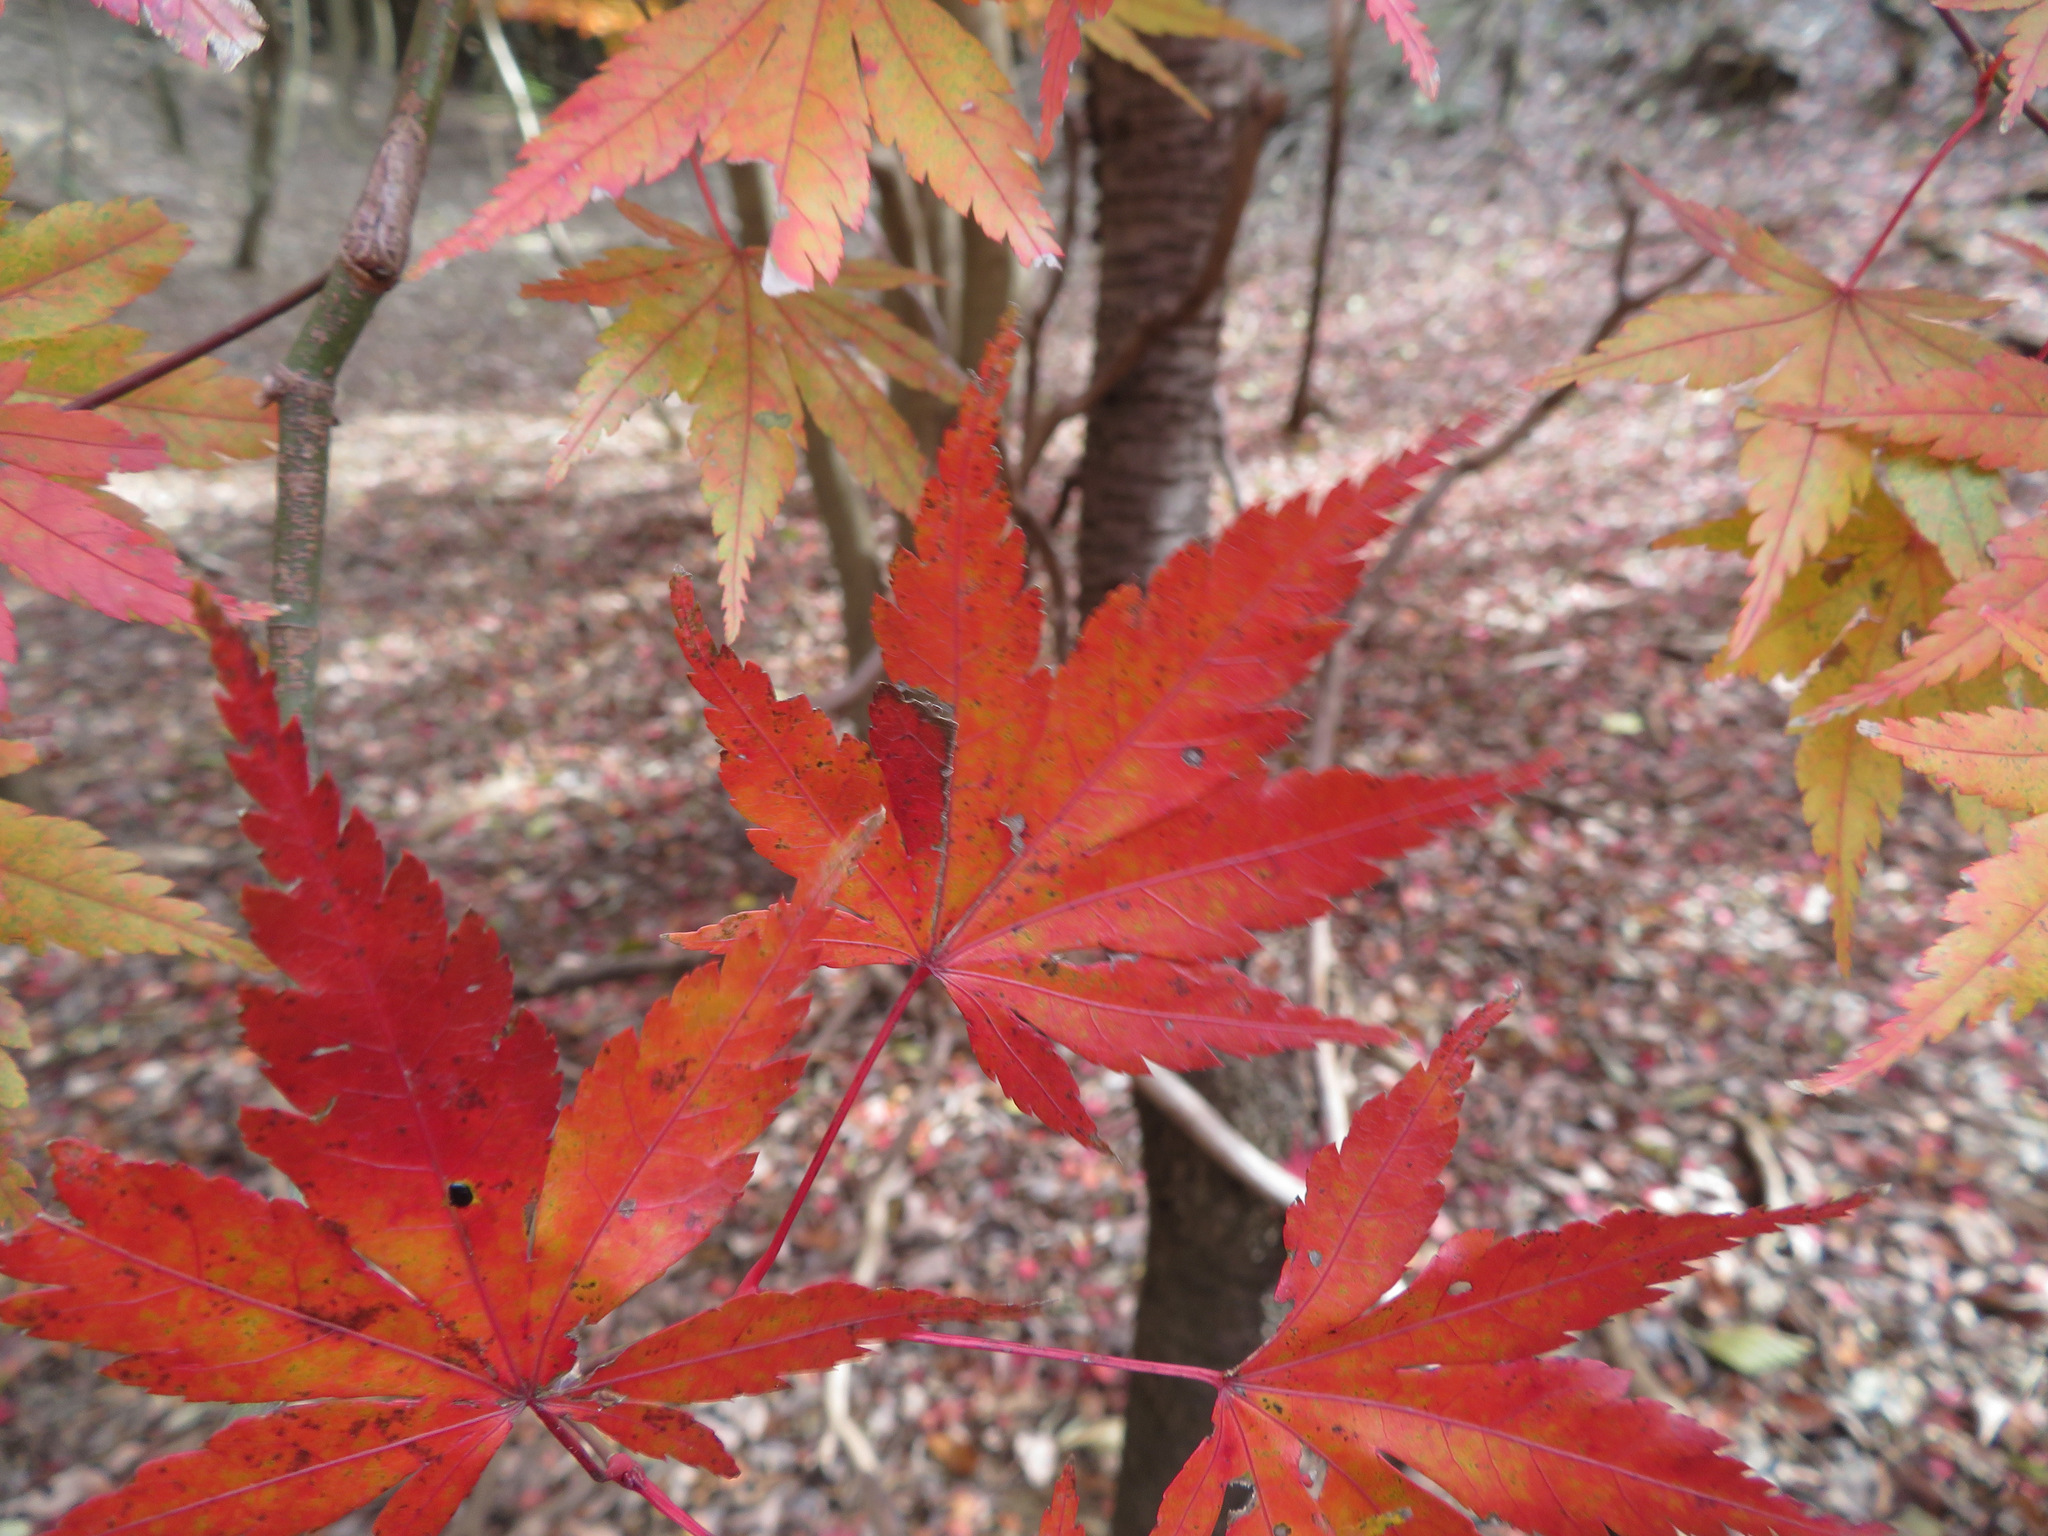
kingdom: Plantae
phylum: Tracheophyta
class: Magnoliopsida
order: Sapindales
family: Sapindaceae
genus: Acer
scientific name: Acer palmatum
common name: Japanese maple
